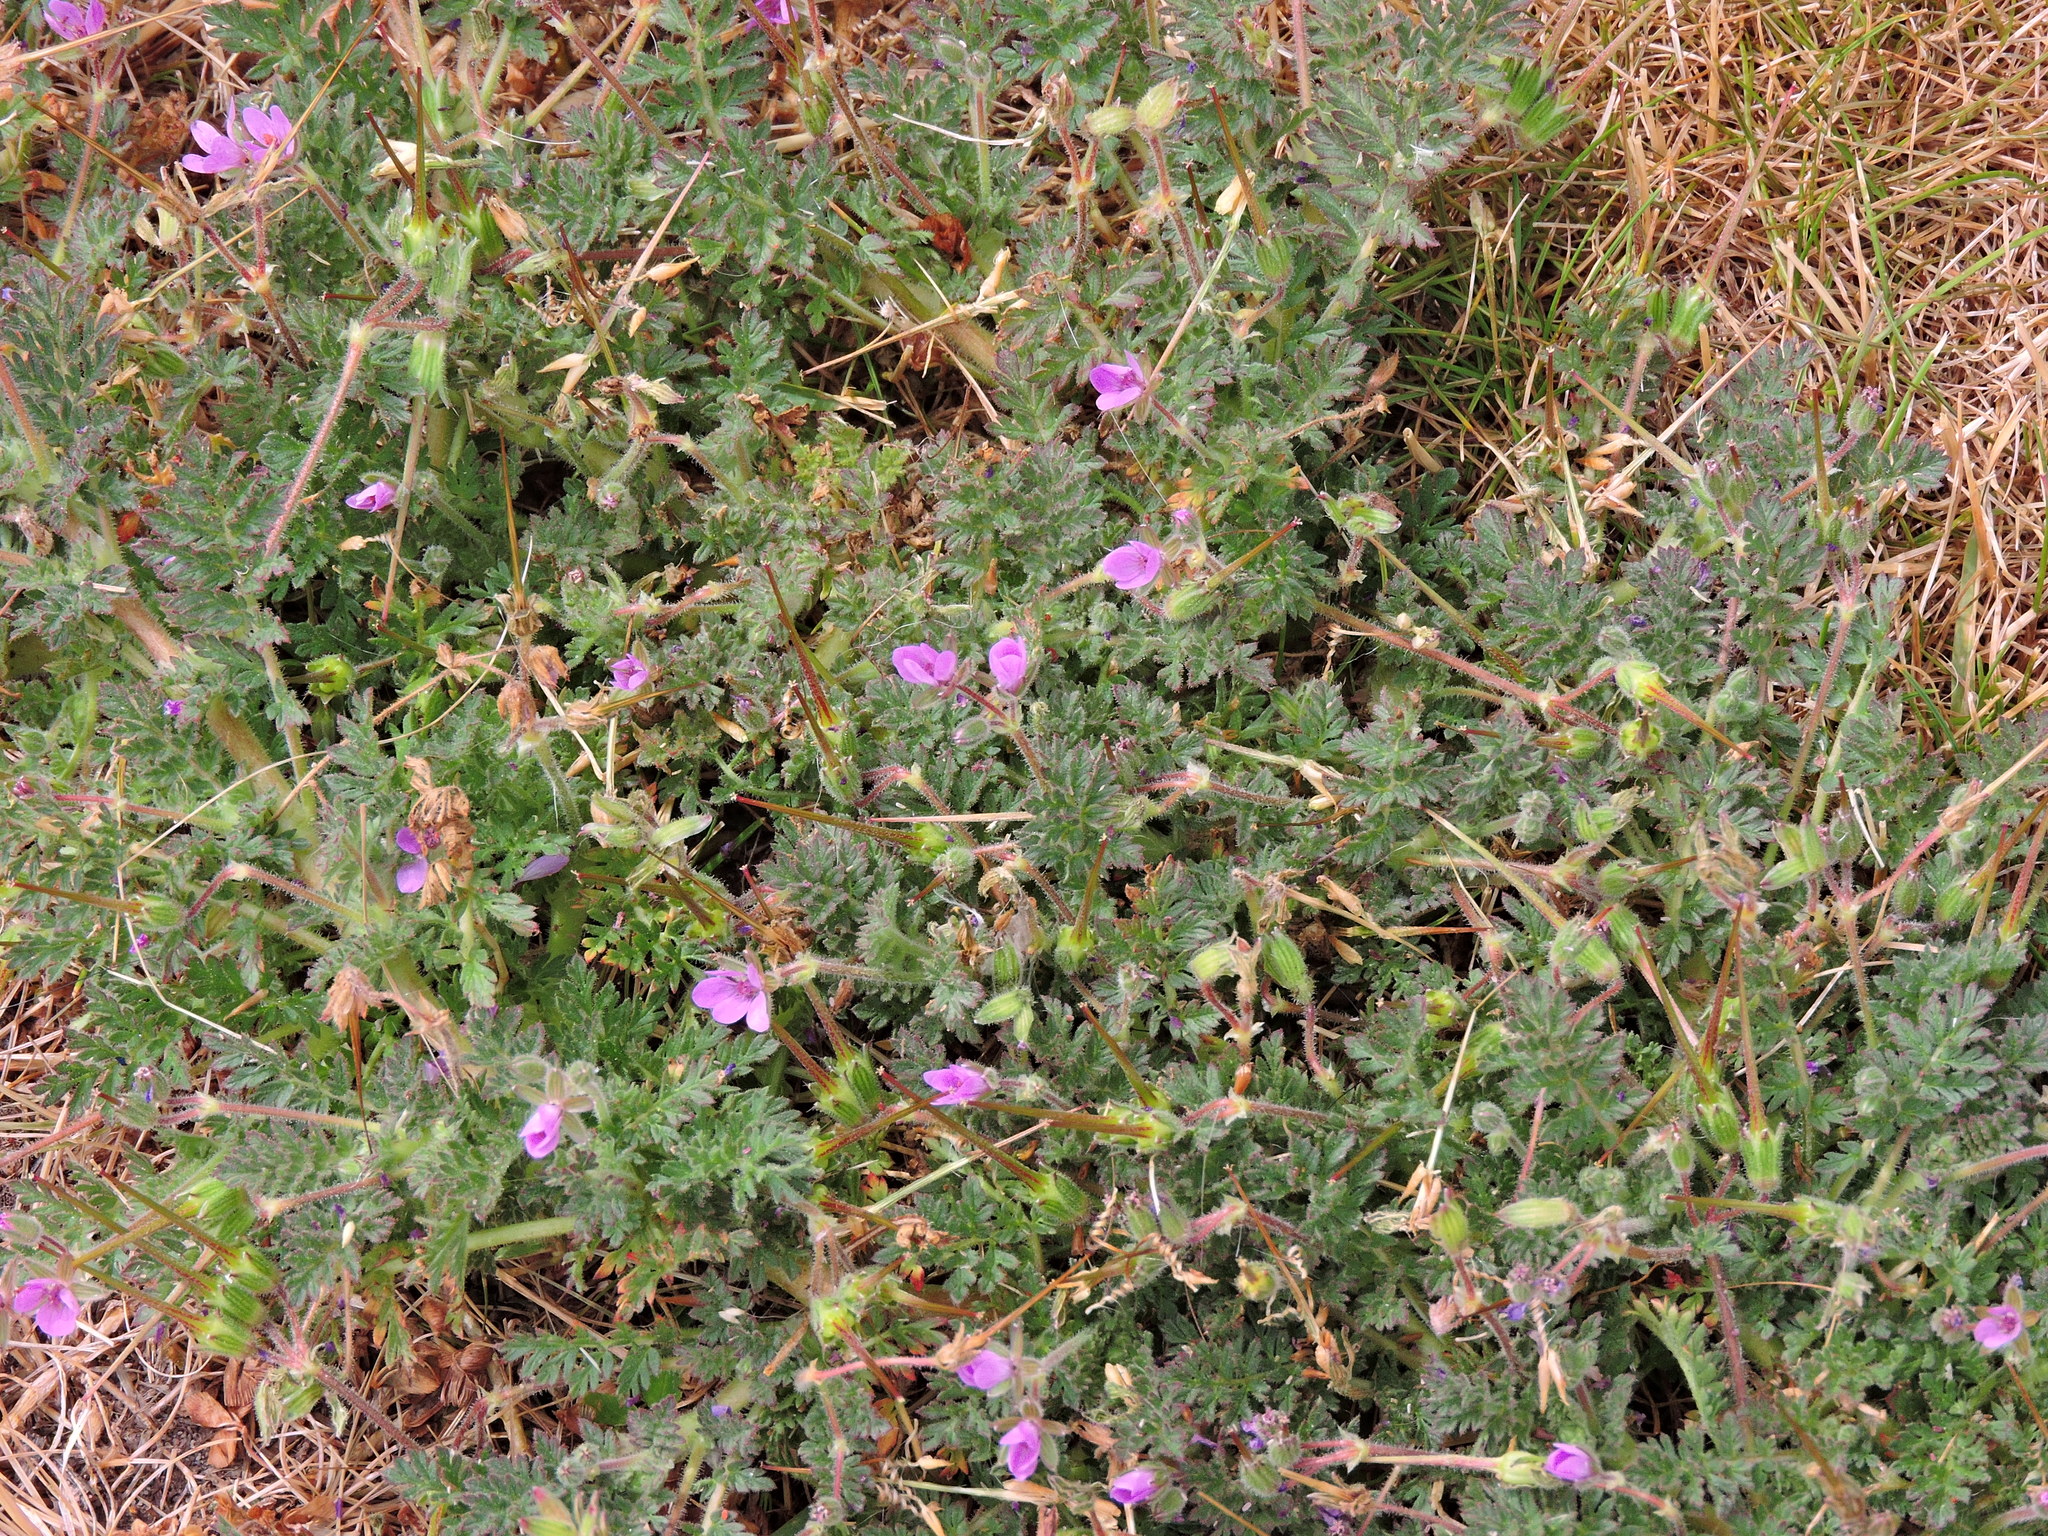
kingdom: Plantae
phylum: Tracheophyta
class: Magnoliopsida
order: Geraniales
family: Geraniaceae
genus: Erodium
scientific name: Erodium cicutarium
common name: Common stork's-bill
